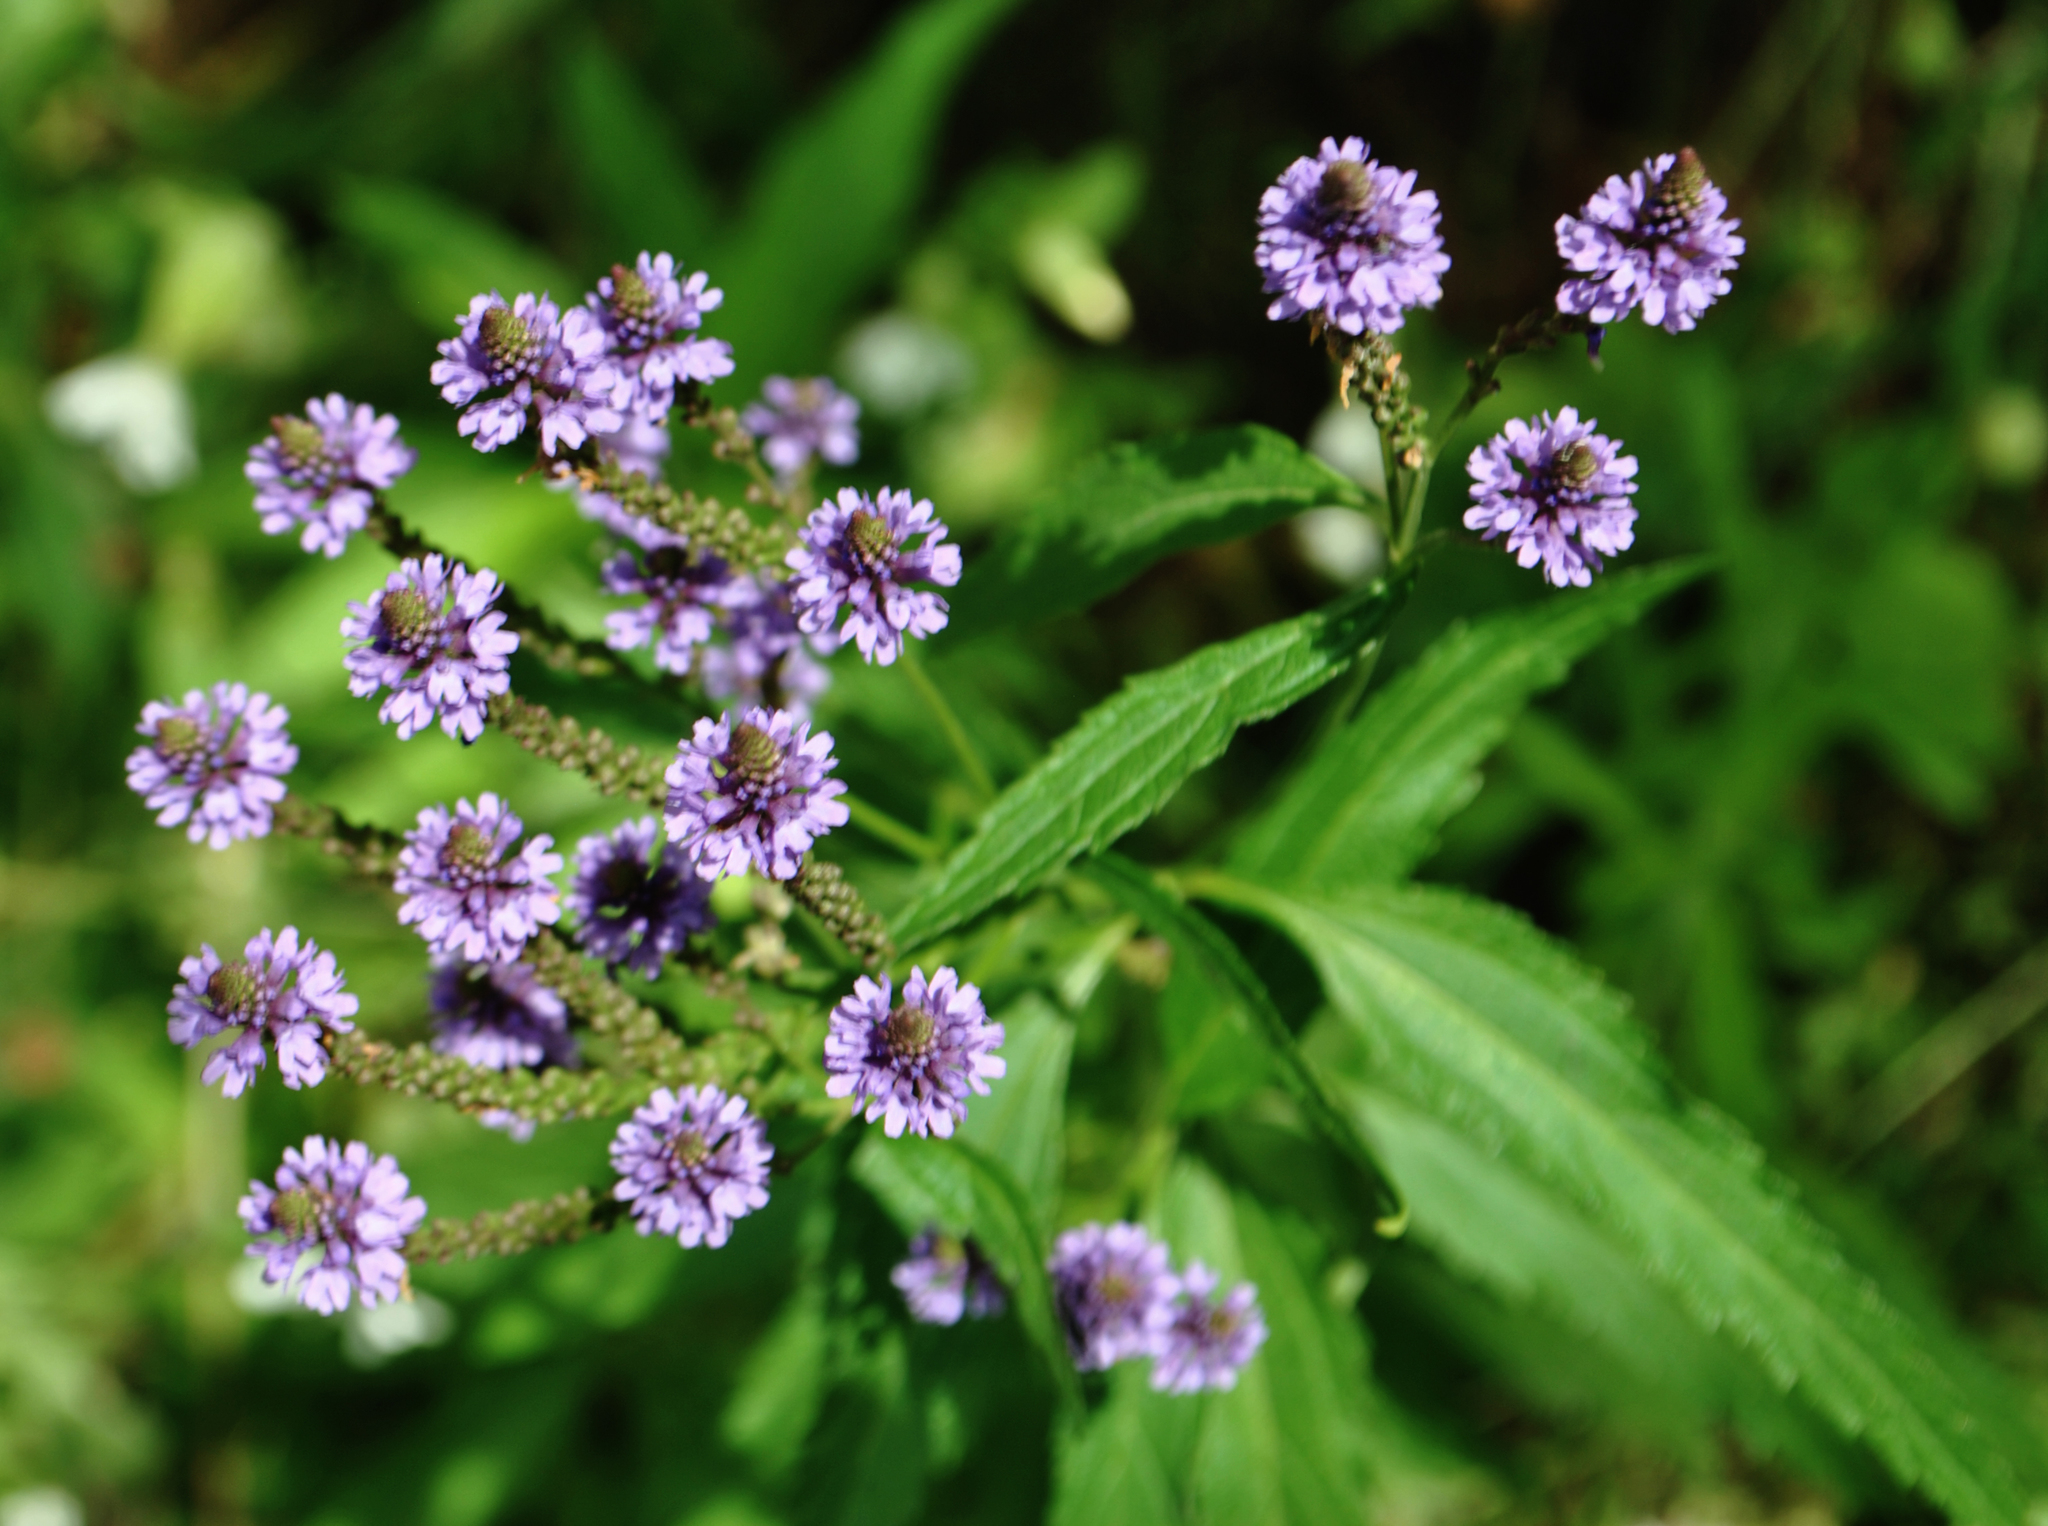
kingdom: Plantae
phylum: Tracheophyta
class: Magnoliopsida
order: Lamiales
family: Verbenaceae
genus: Verbena
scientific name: Verbena hastata
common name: American blue vervain
